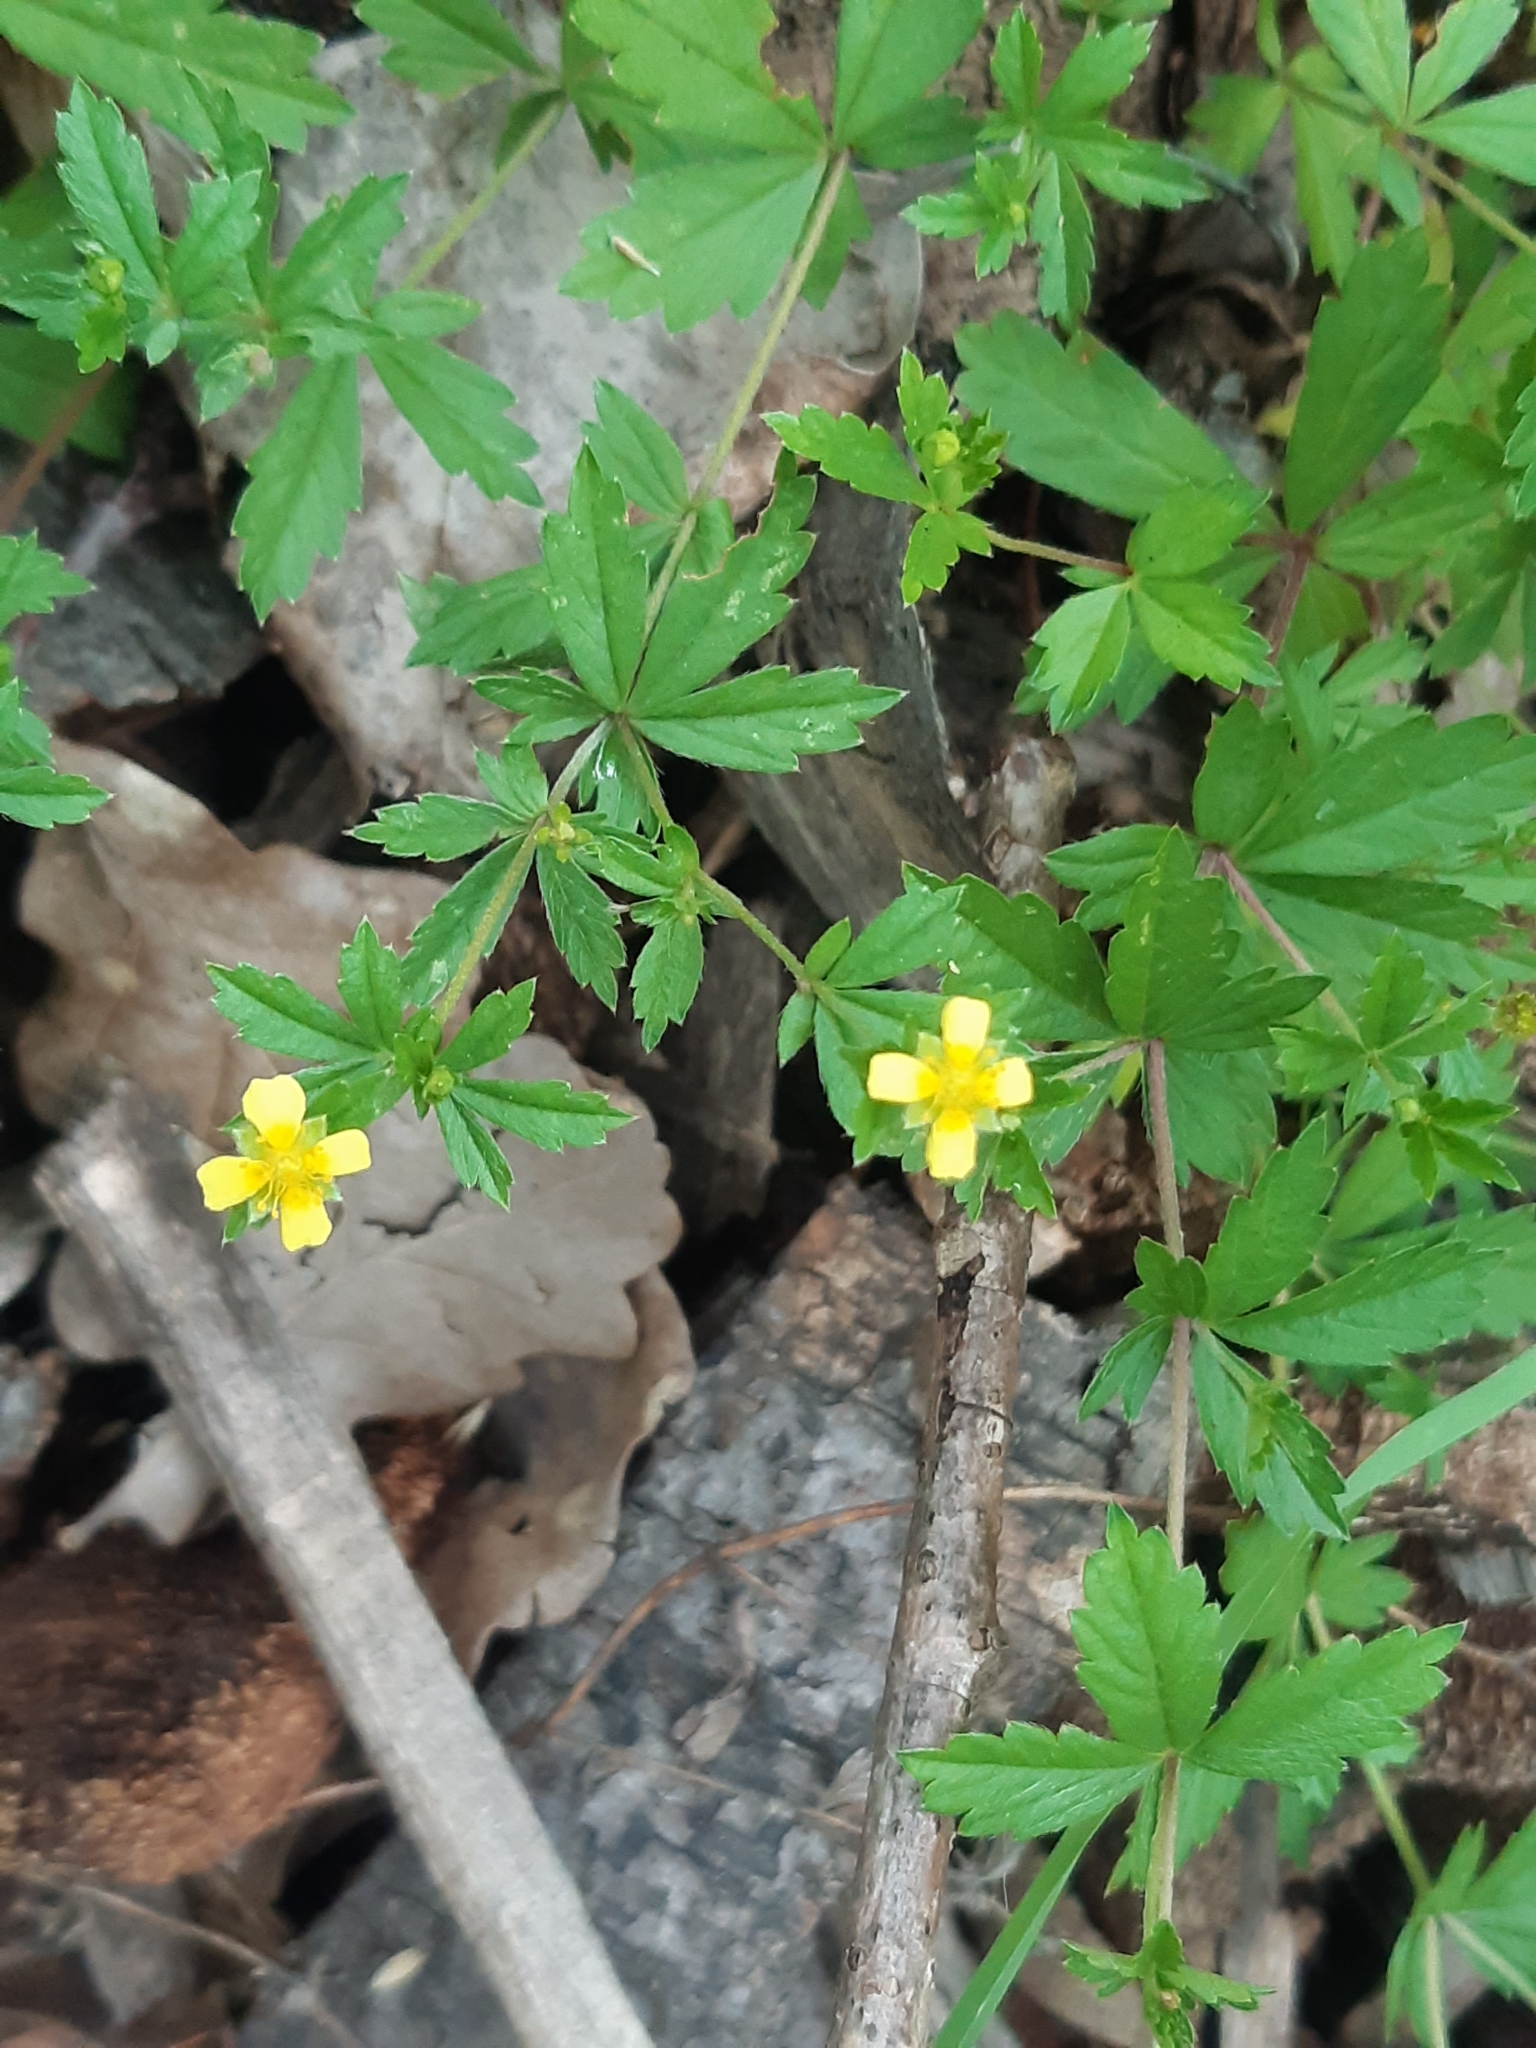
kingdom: Plantae
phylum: Tracheophyta
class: Magnoliopsida
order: Rosales
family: Rosaceae
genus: Potentilla
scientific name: Potentilla erecta
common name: Tormentil
